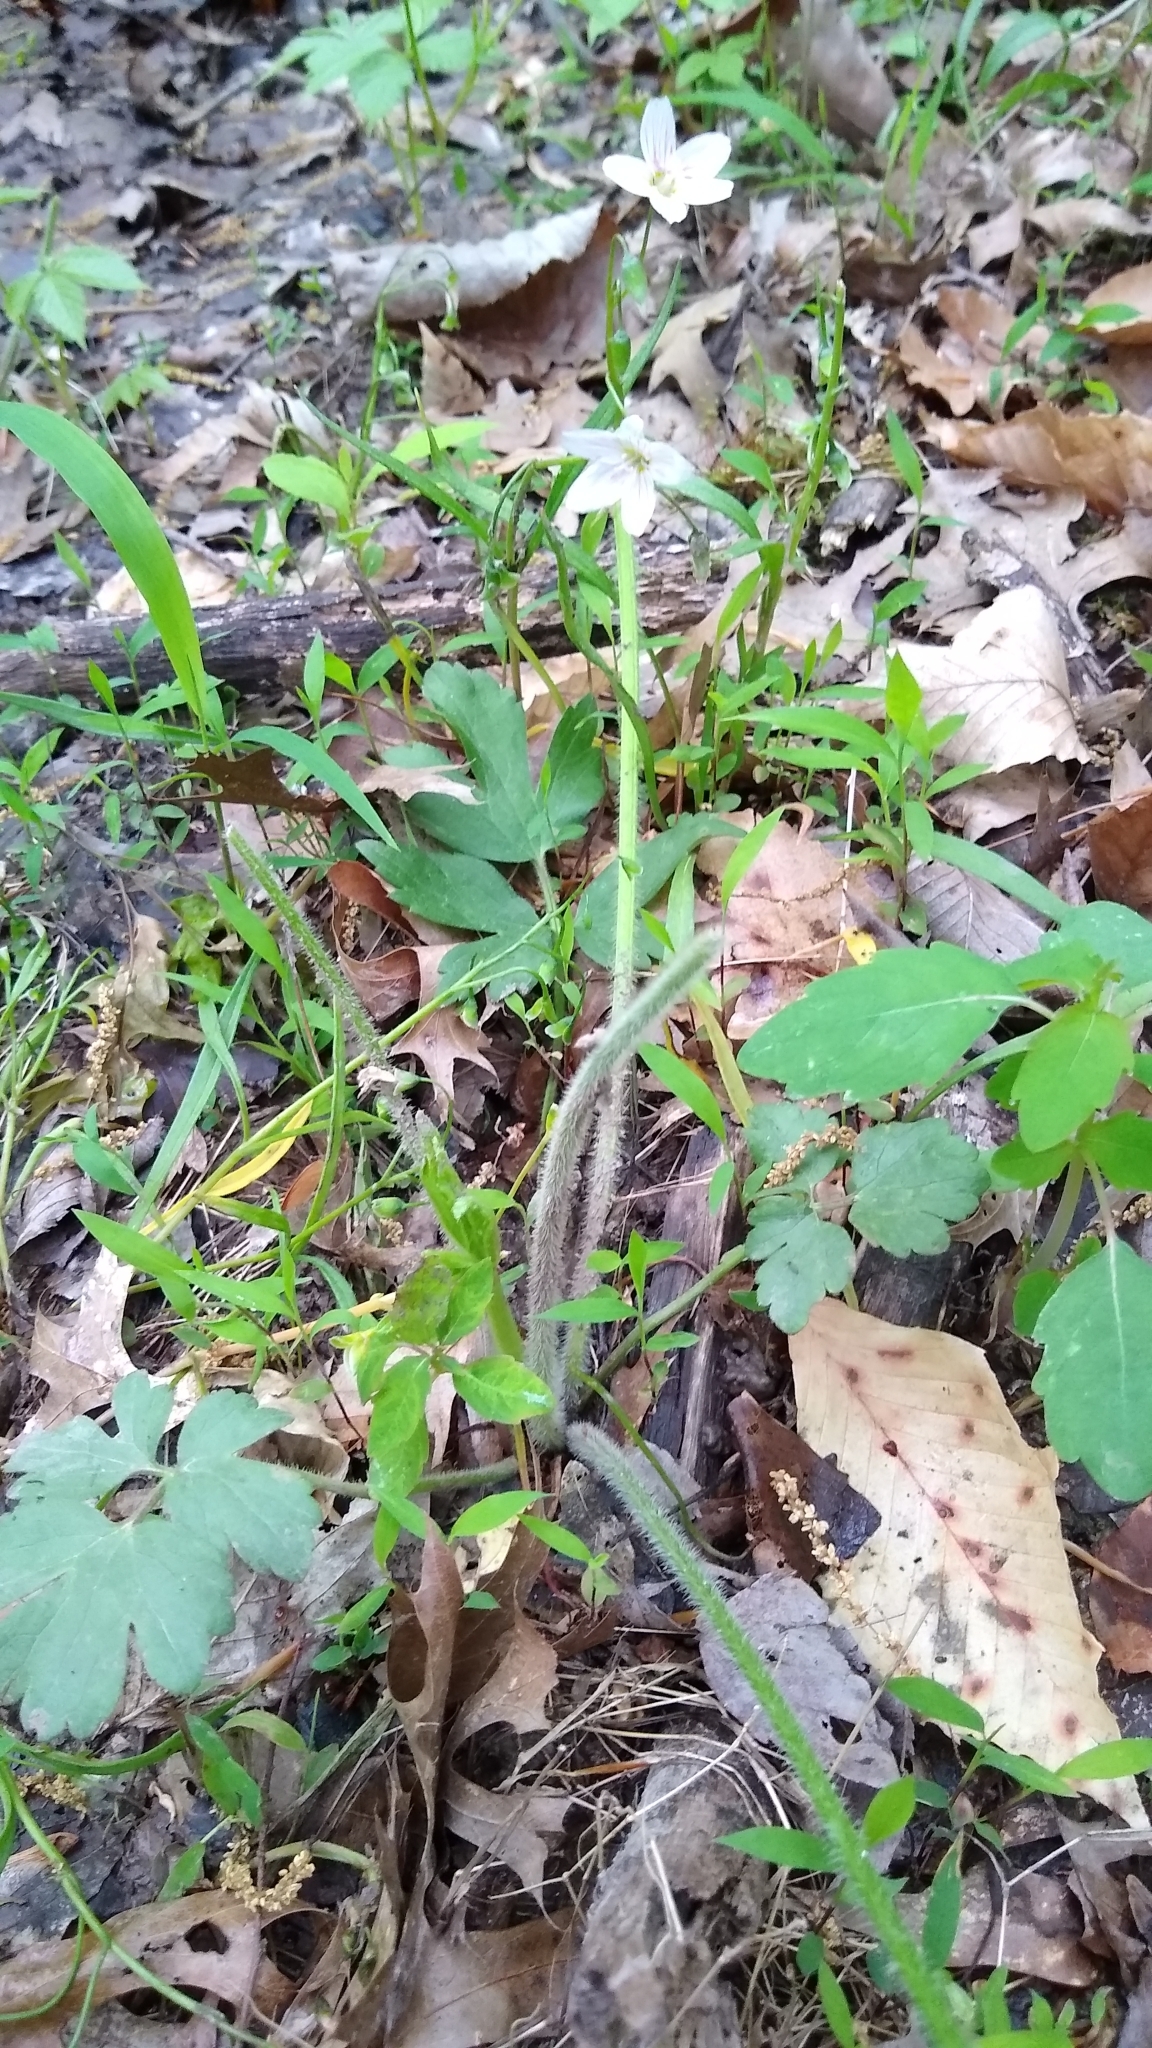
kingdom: Plantae
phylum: Tracheophyta
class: Magnoliopsida
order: Ranunculales
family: Ranunculaceae
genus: Ranunculus
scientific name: Ranunculus sardous
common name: Hairy buttercup
